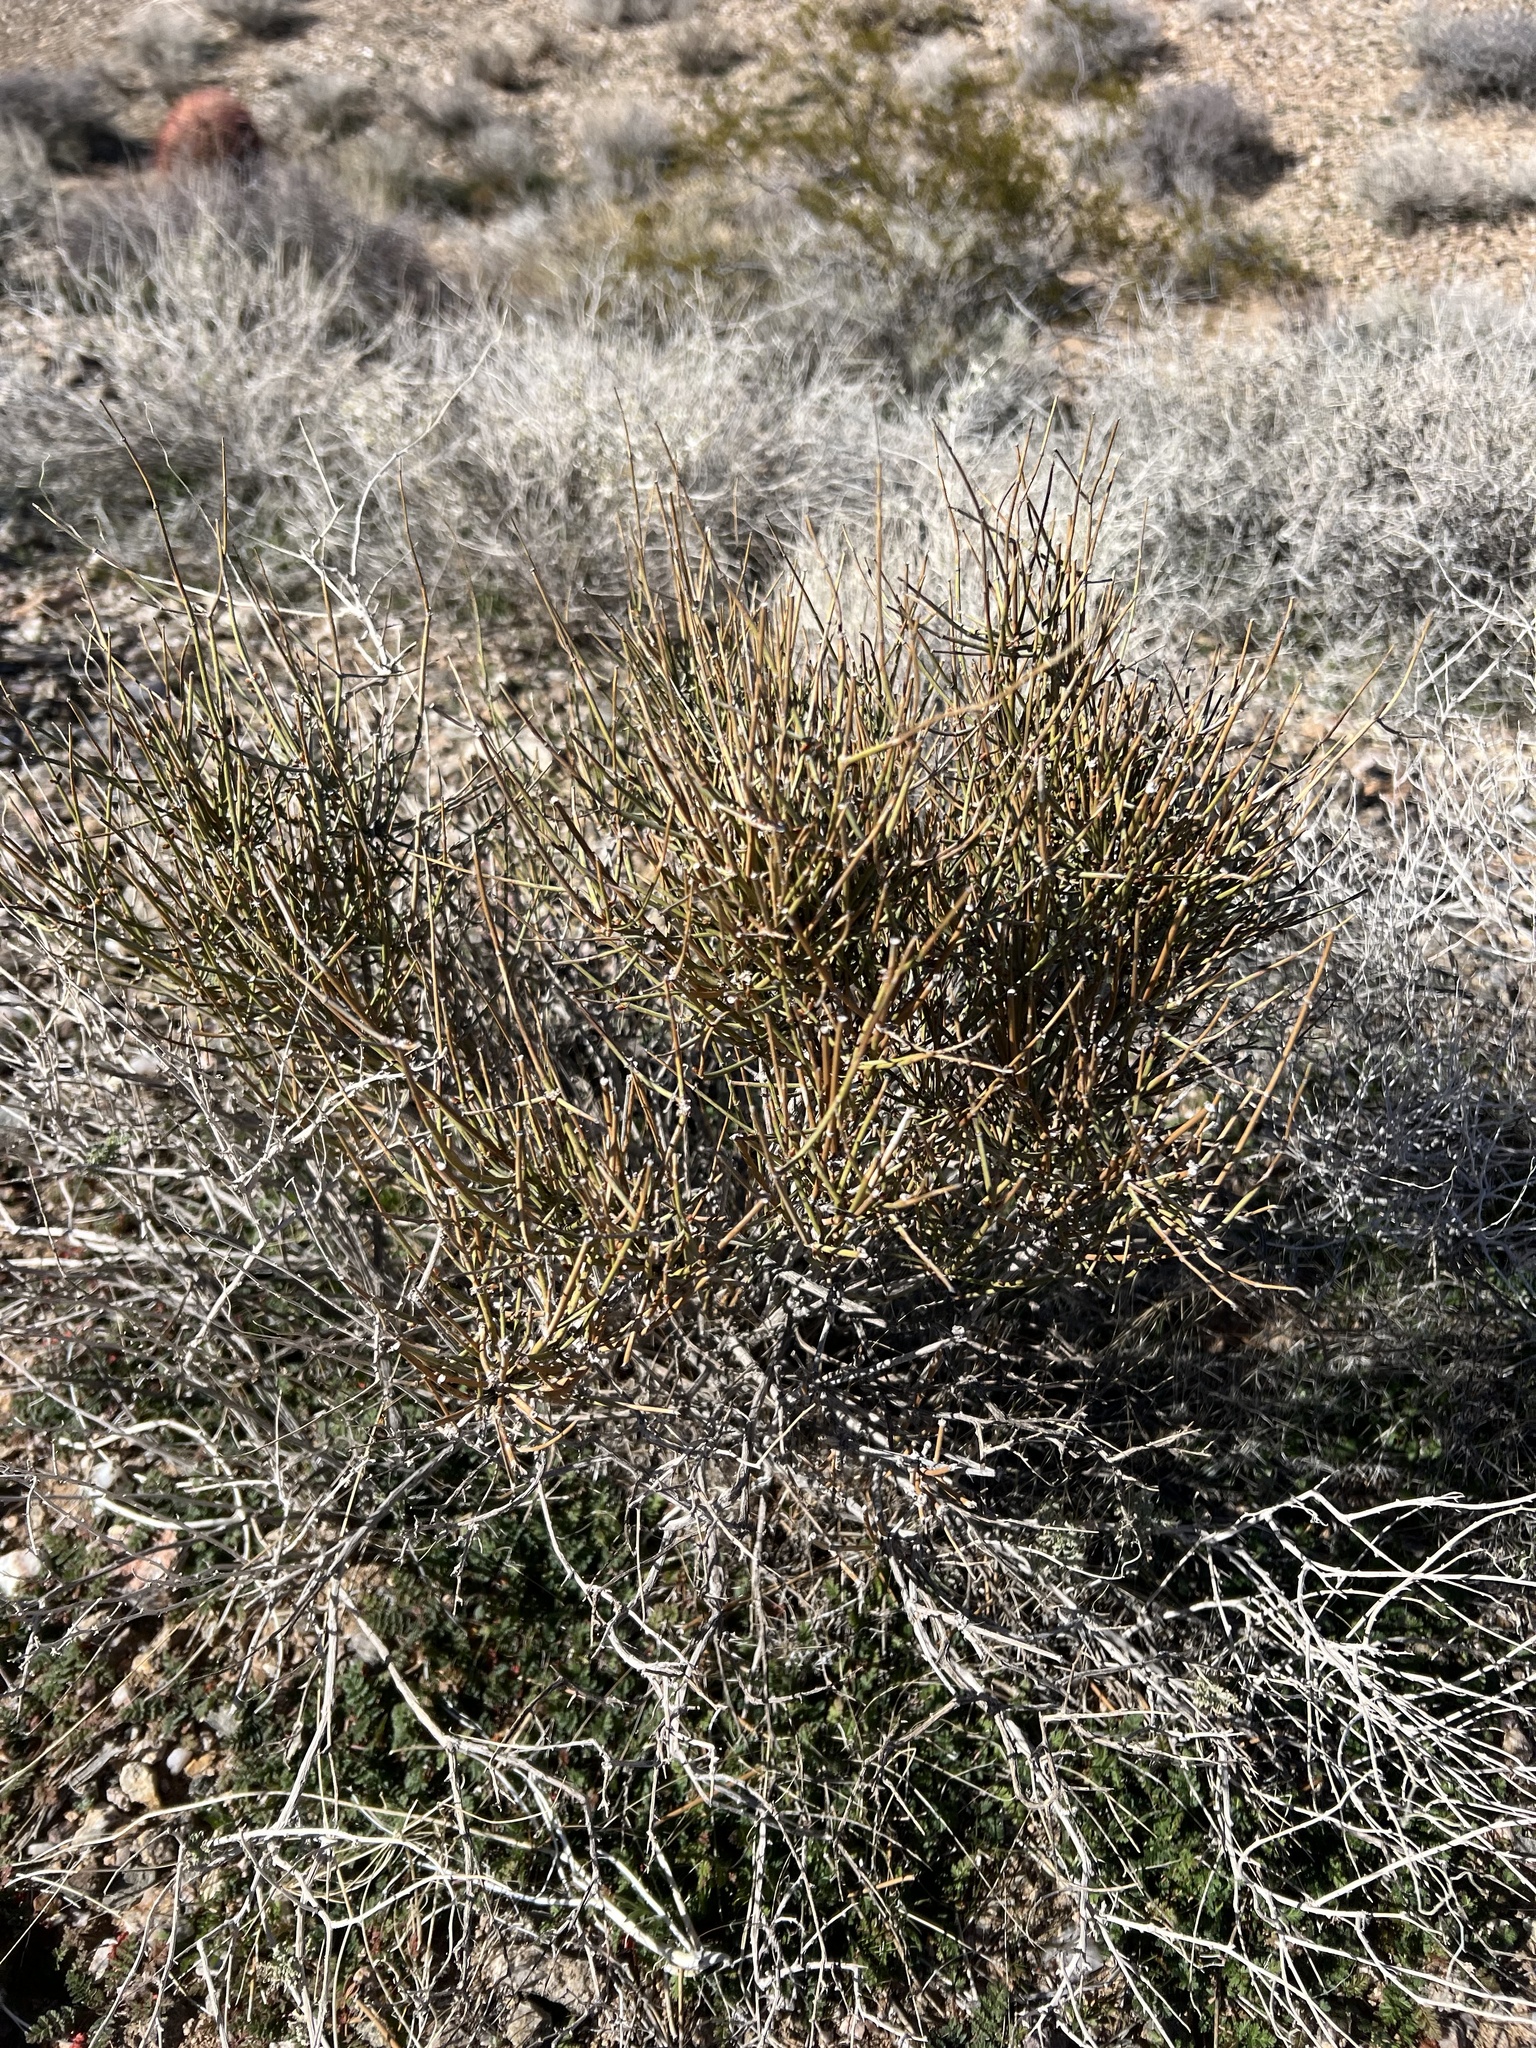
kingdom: Plantae
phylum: Tracheophyta
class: Gnetopsida
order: Ephedrales
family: Ephedraceae
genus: Ephedra
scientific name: Ephedra nevadensis
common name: Gray ephedra
